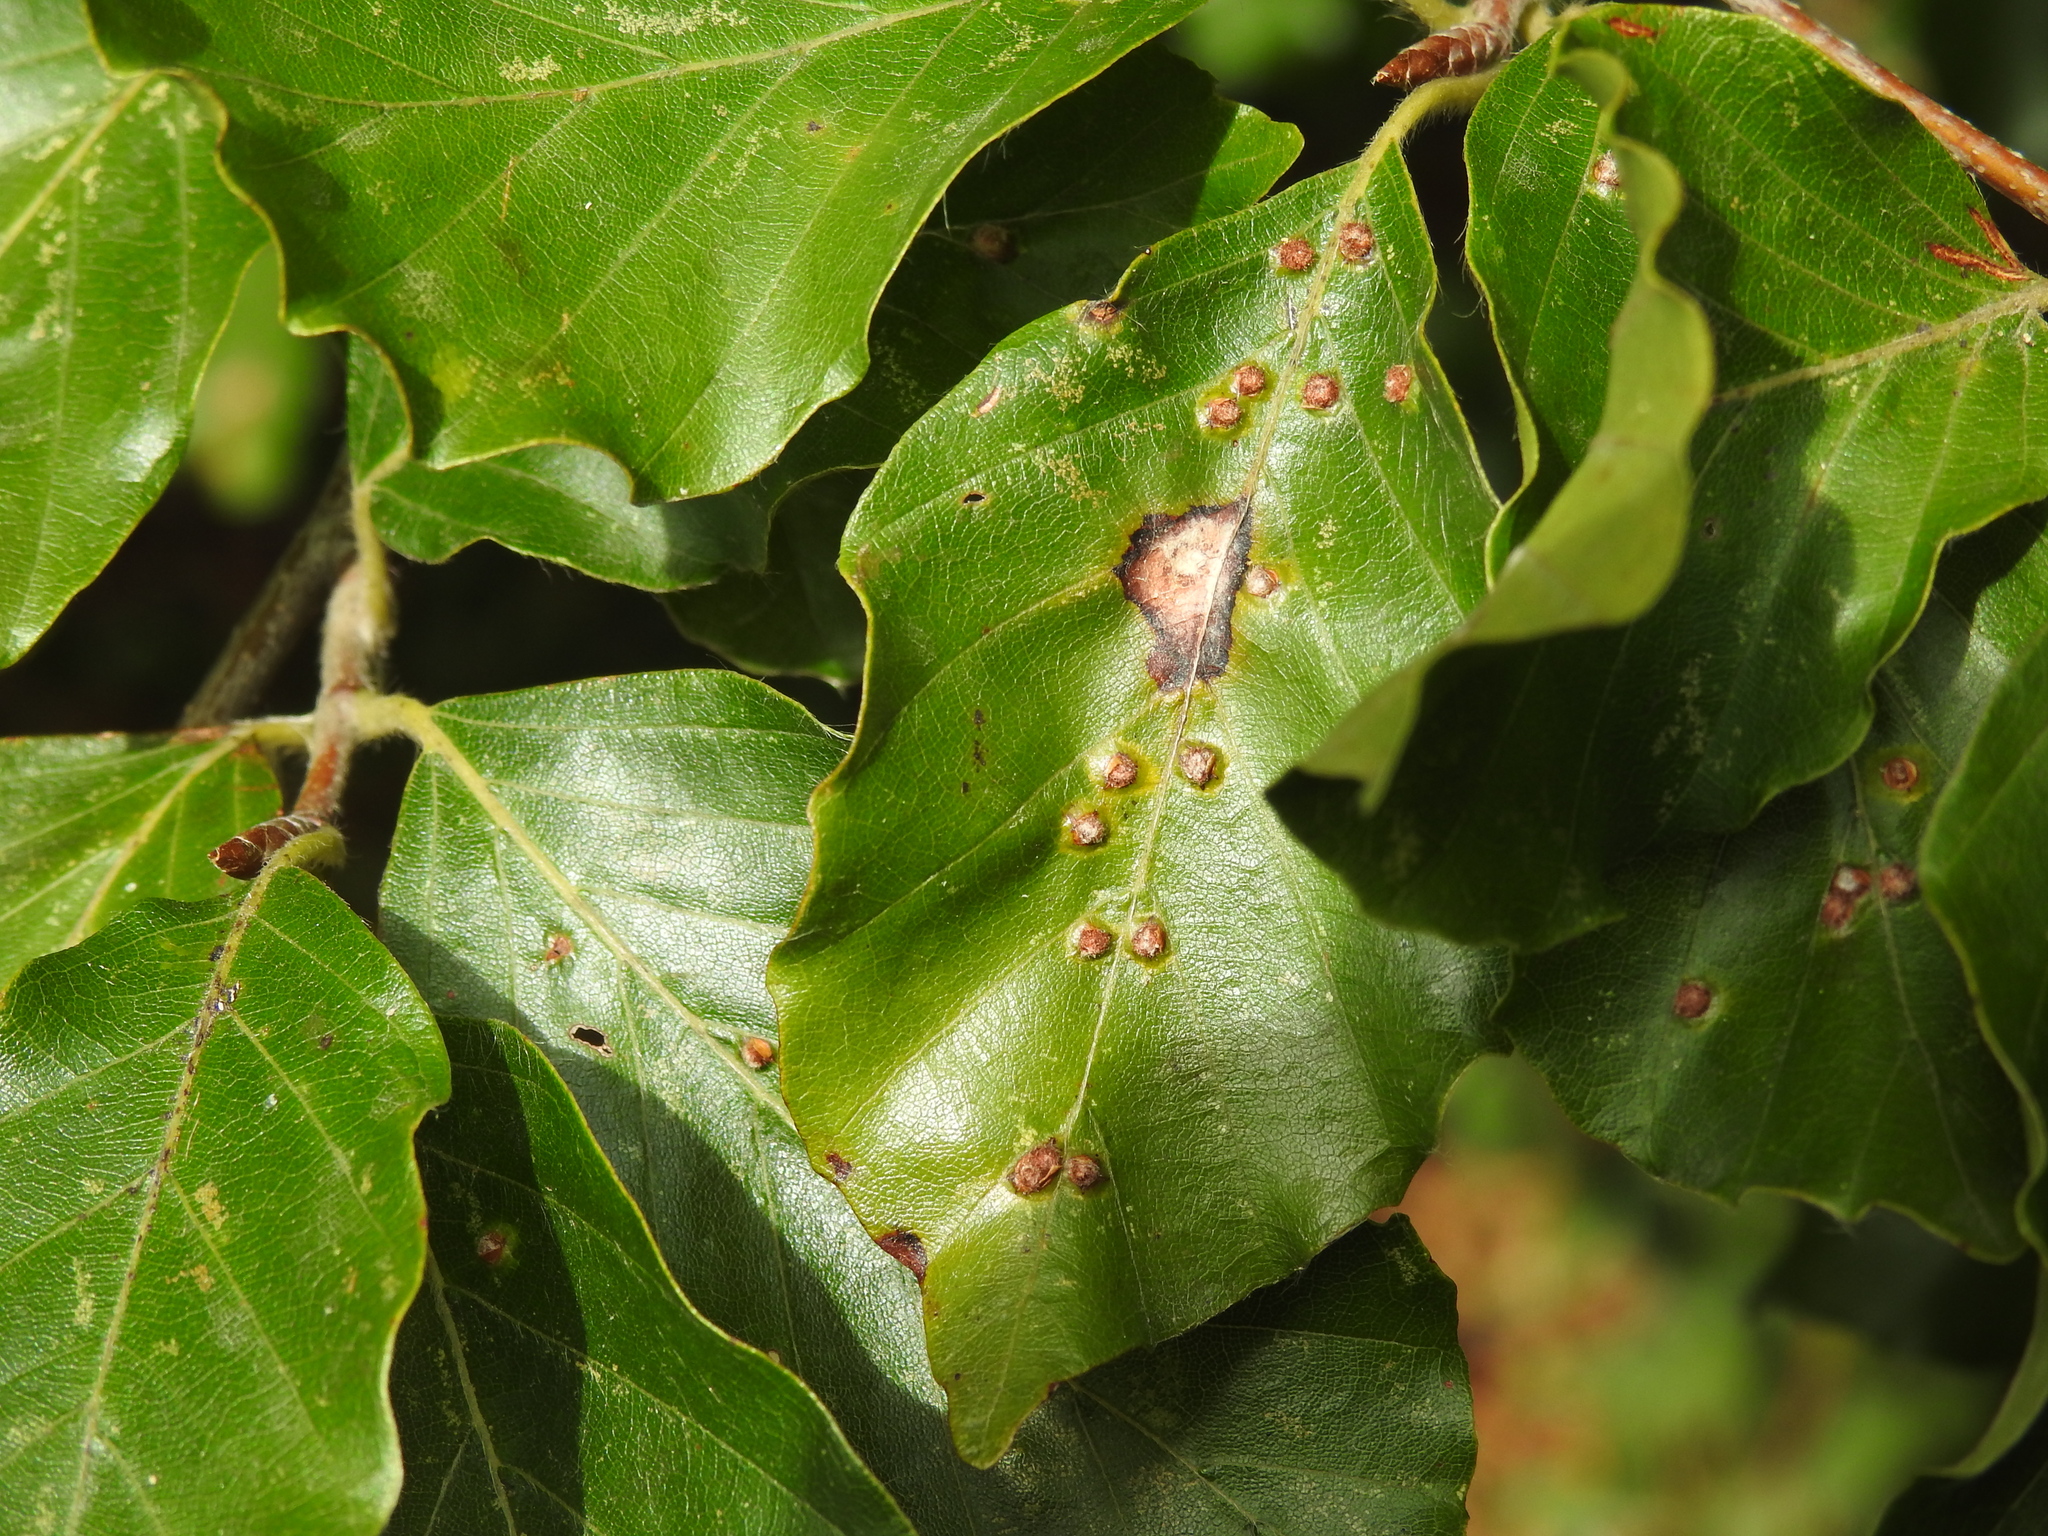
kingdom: Animalia
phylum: Arthropoda
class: Insecta
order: Diptera
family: Cecidomyiidae
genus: Hartigiola
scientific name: Hartigiola annulipes
